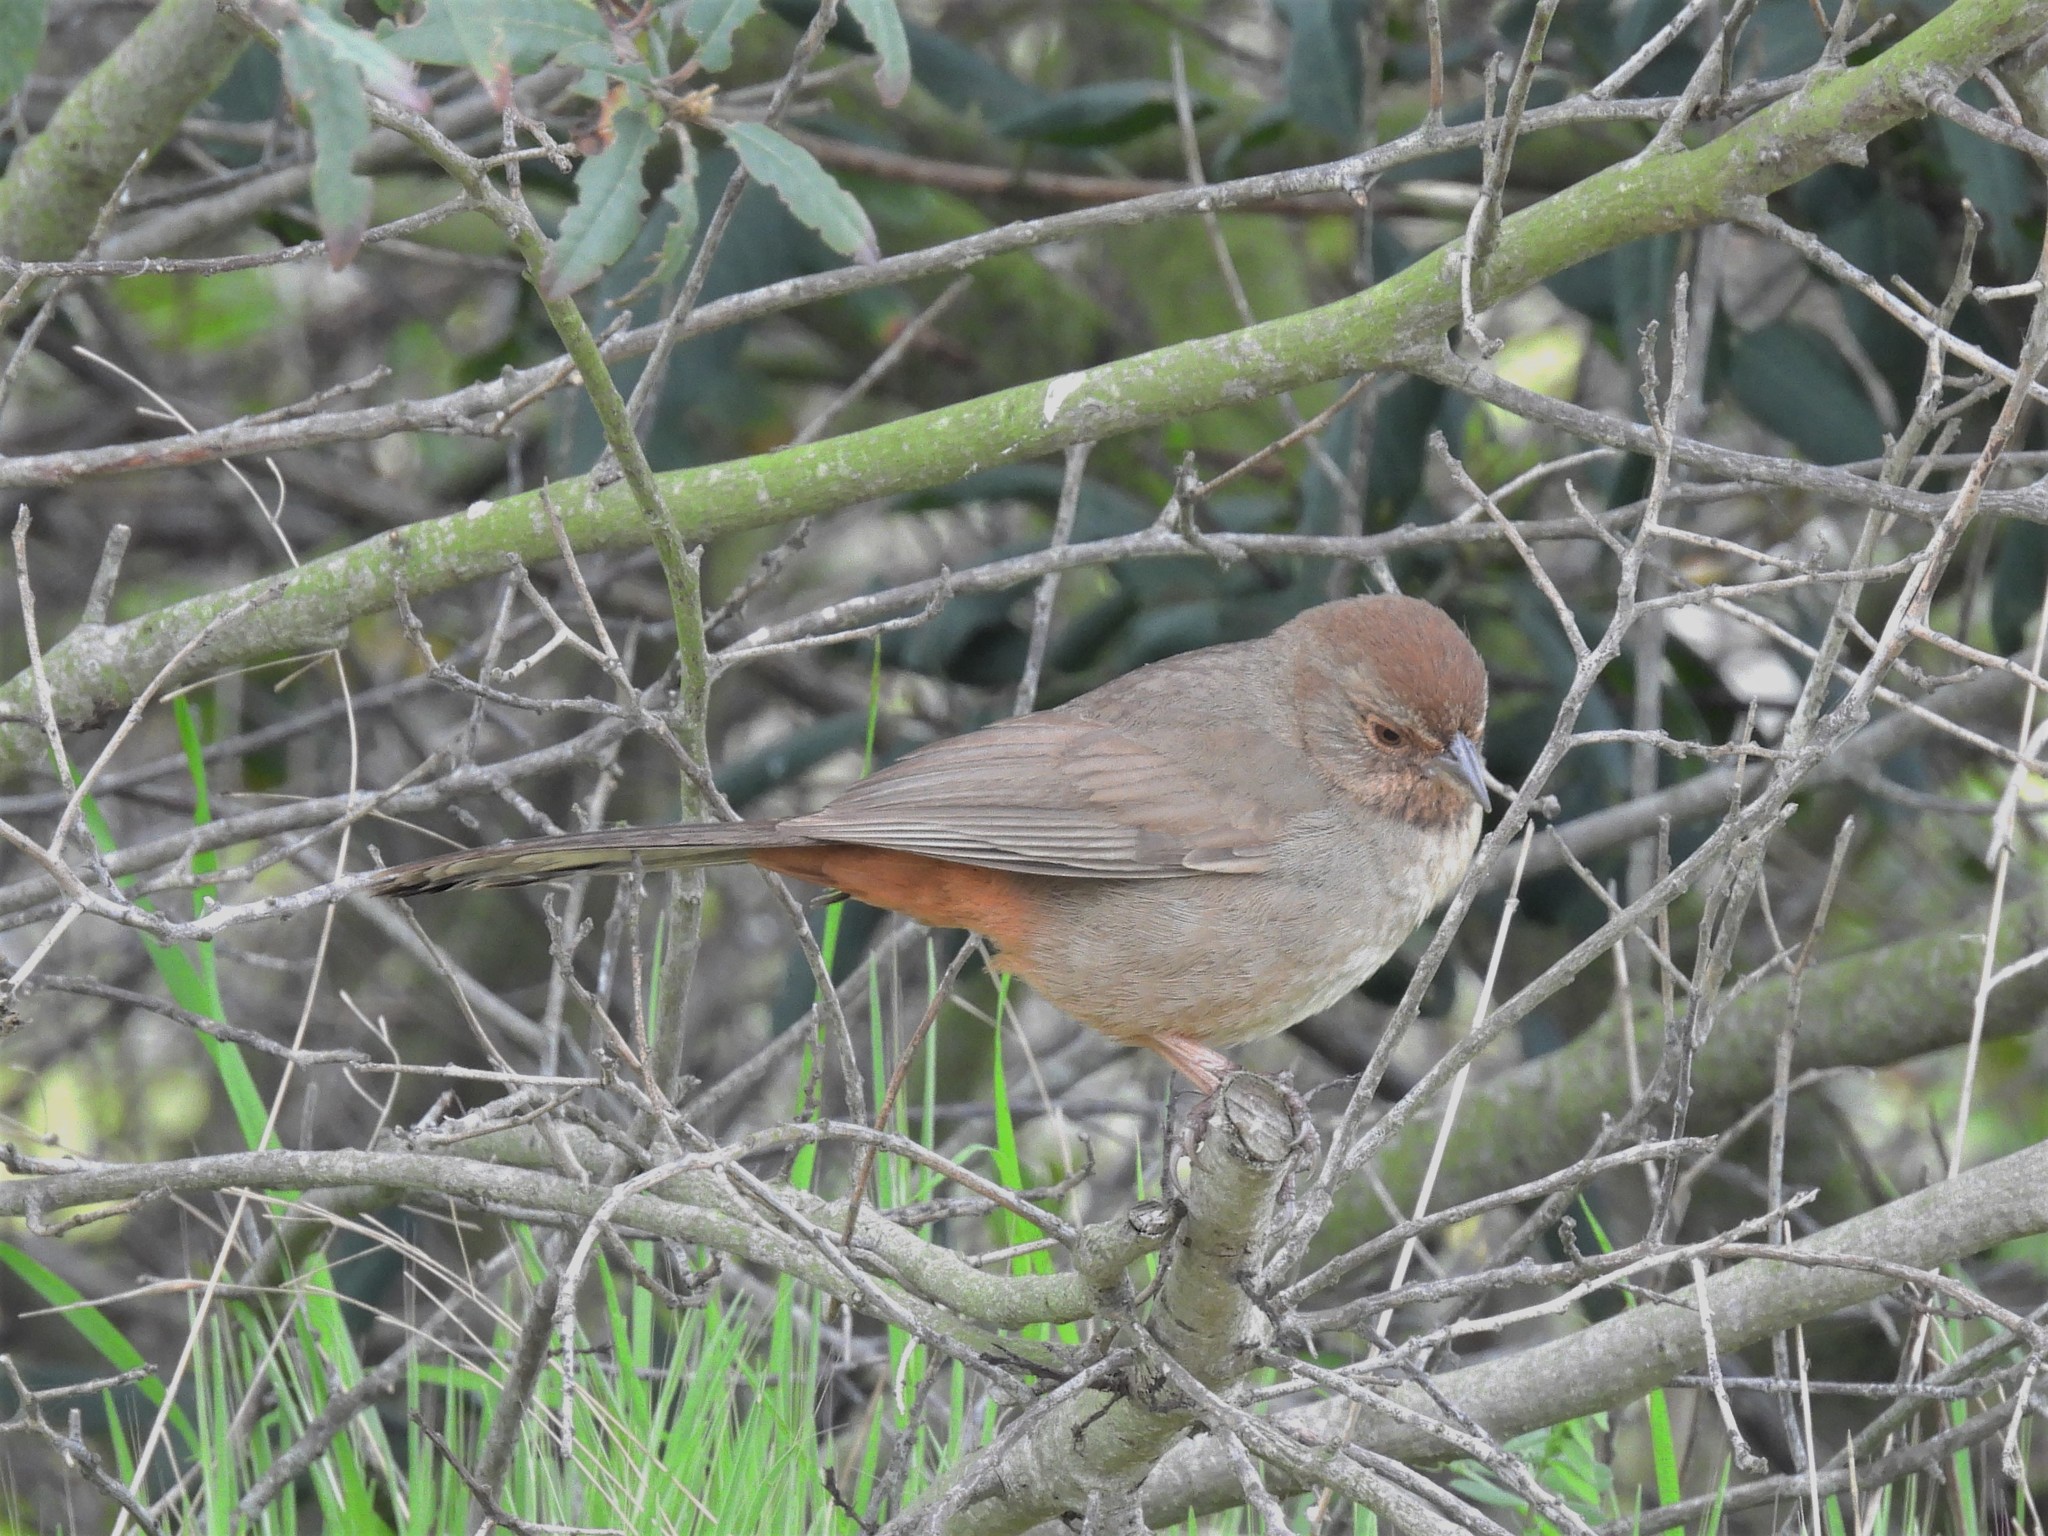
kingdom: Animalia
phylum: Chordata
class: Aves
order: Passeriformes
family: Passerellidae
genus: Melozone
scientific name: Melozone crissalis
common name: California towhee
